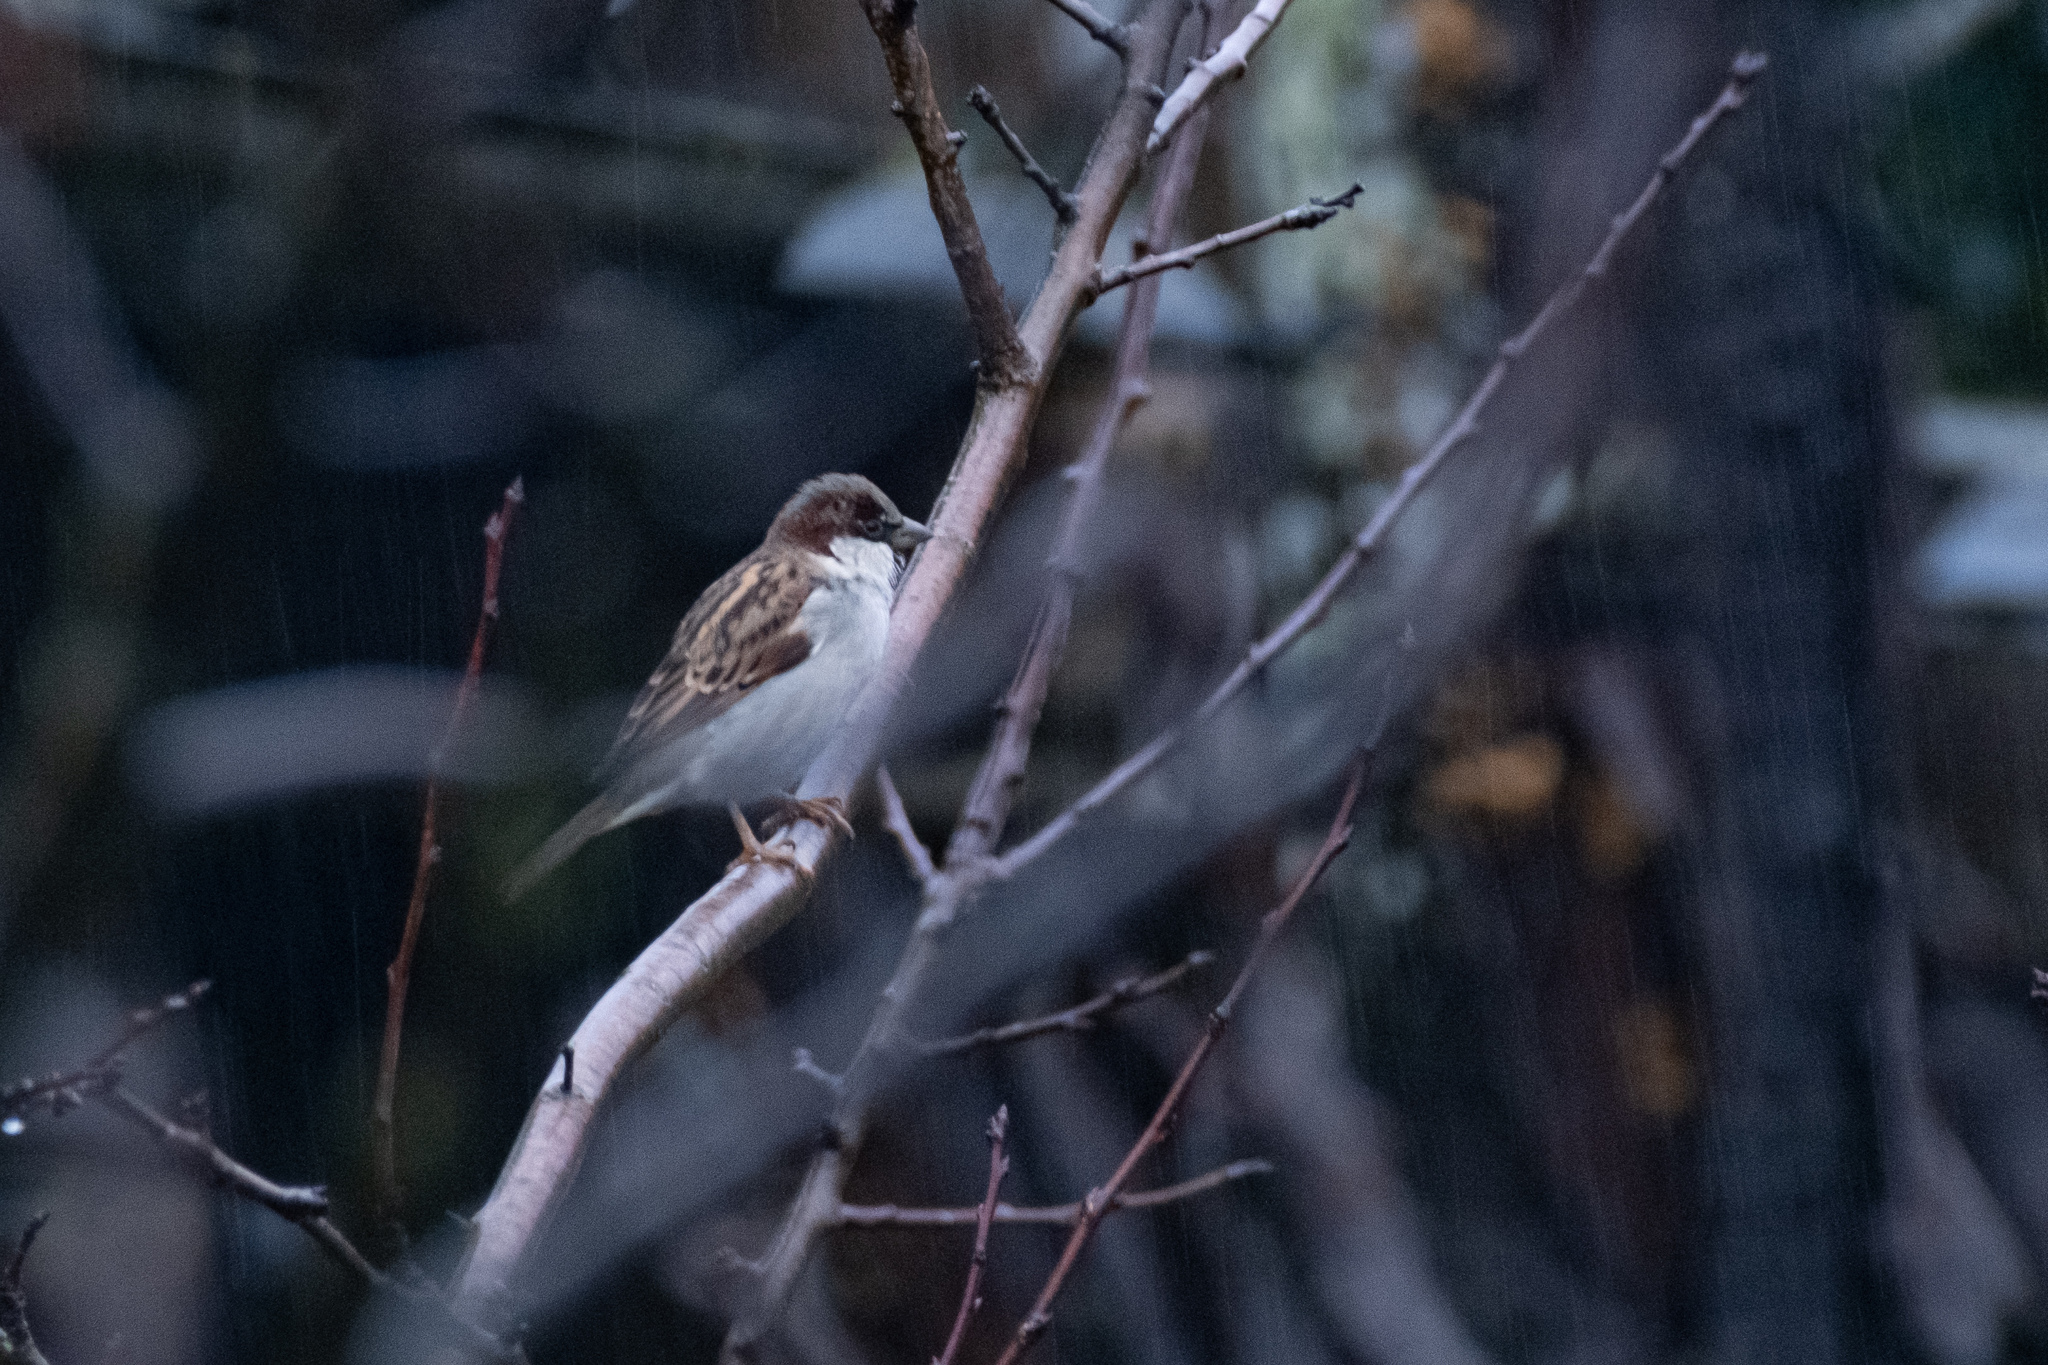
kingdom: Animalia
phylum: Chordata
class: Aves
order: Passeriformes
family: Passeridae
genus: Passer
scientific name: Passer domesticus
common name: House sparrow
